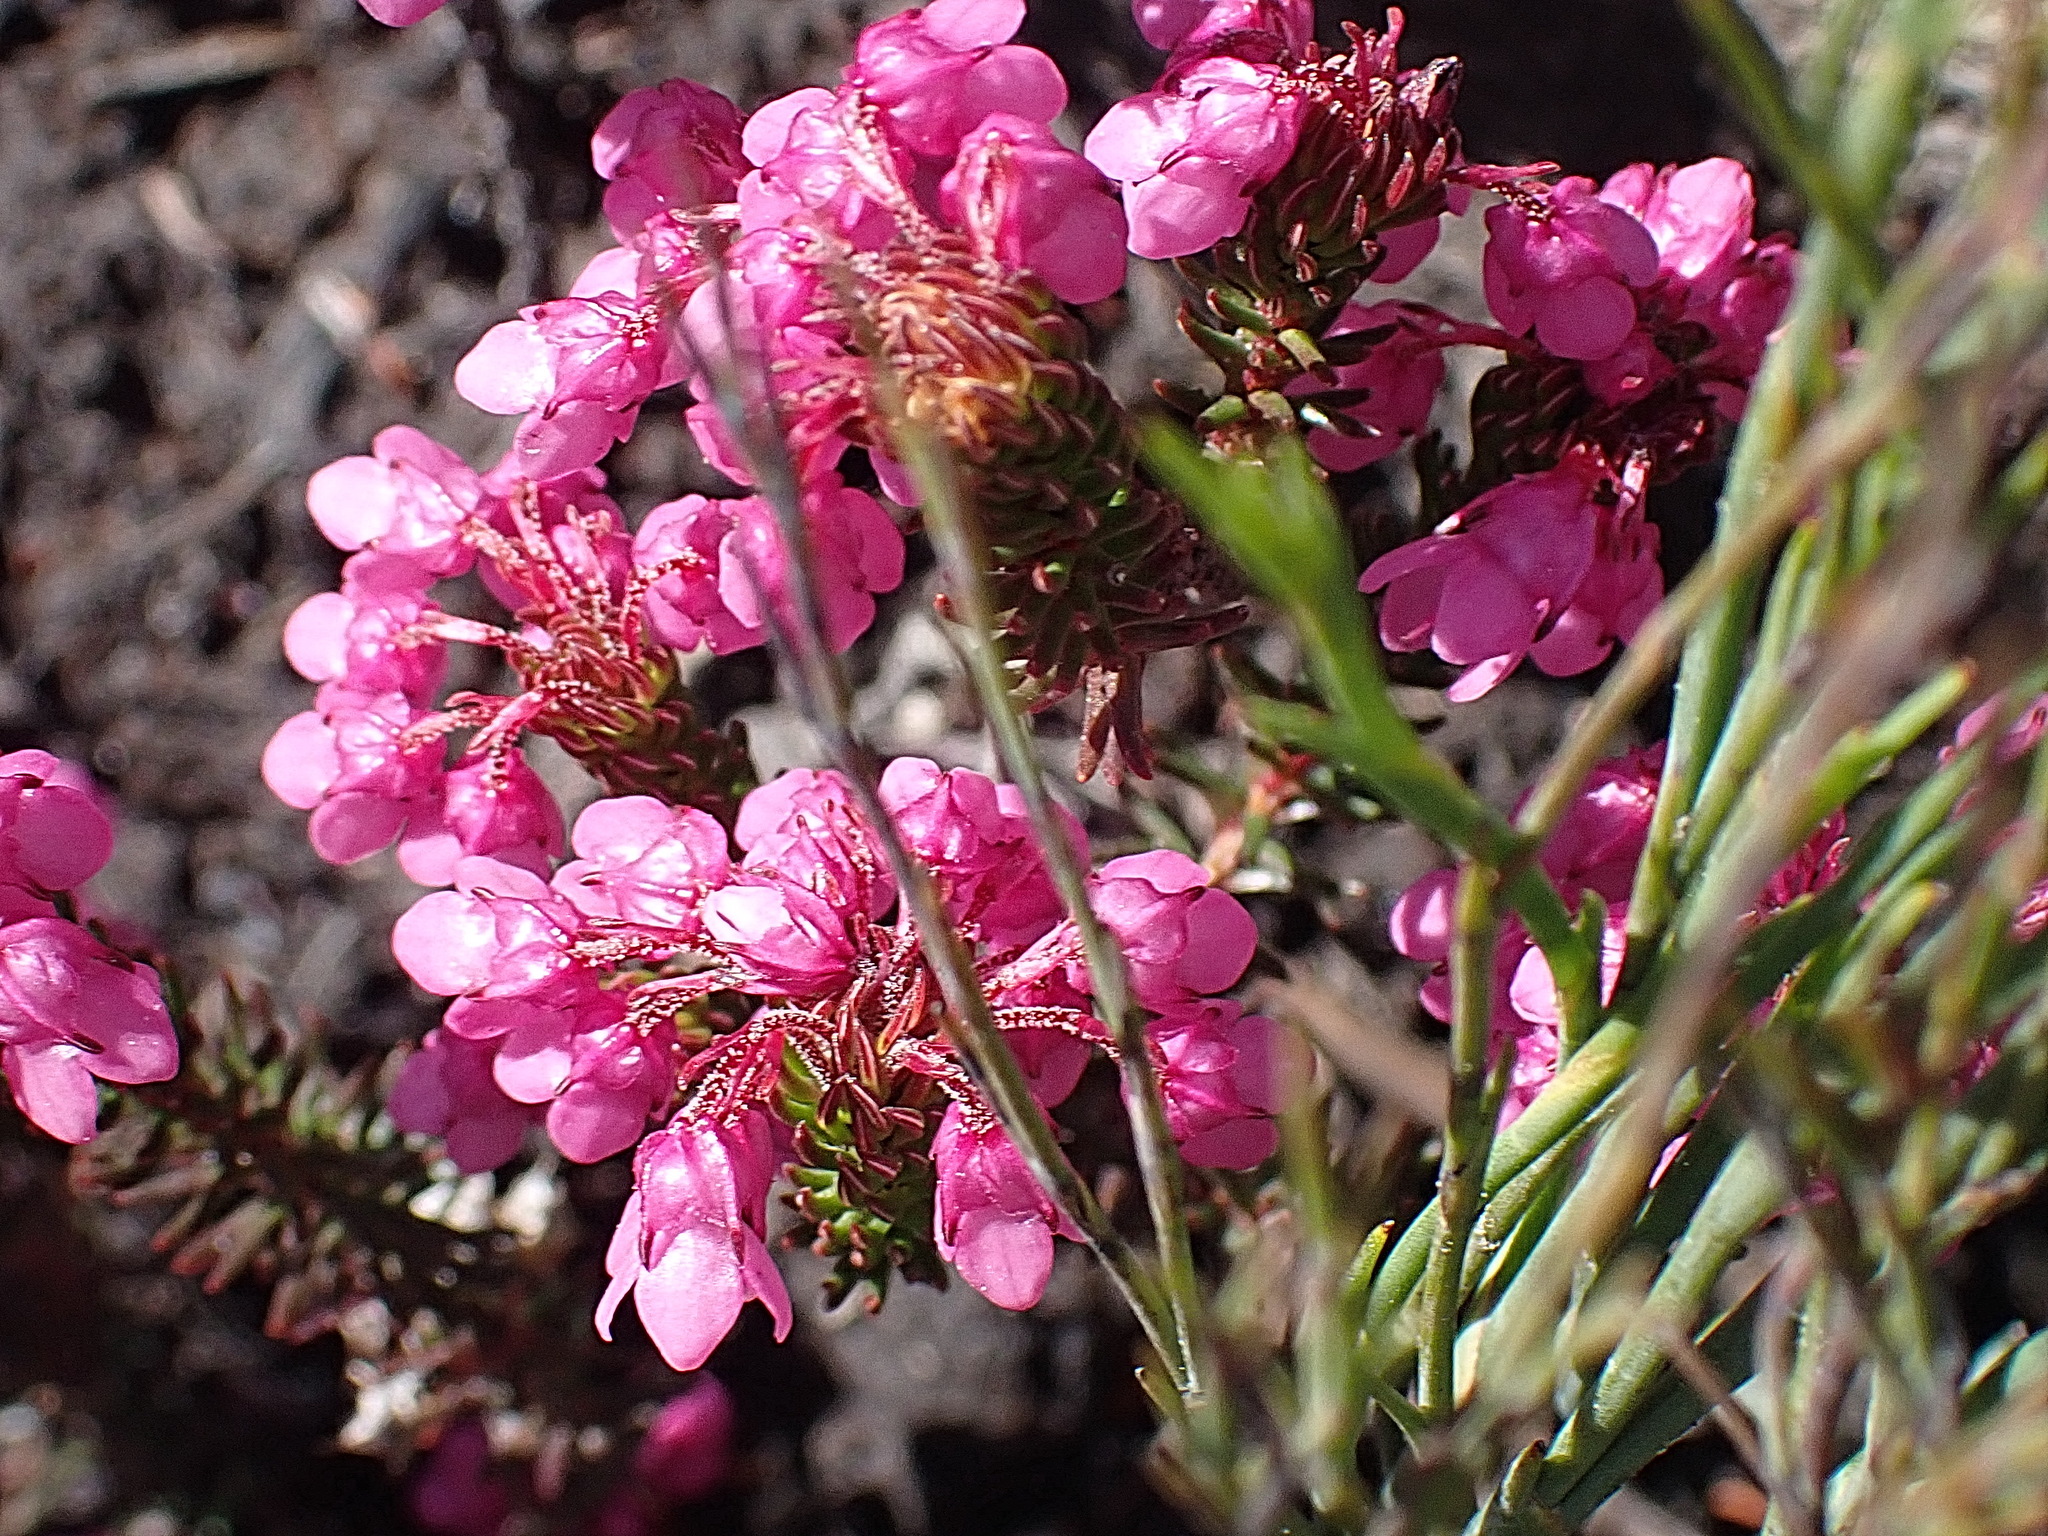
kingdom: Plantae
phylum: Tracheophyta
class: Magnoliopsida
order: Ericales
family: Ericaceae
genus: Erica
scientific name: Erica cubica
